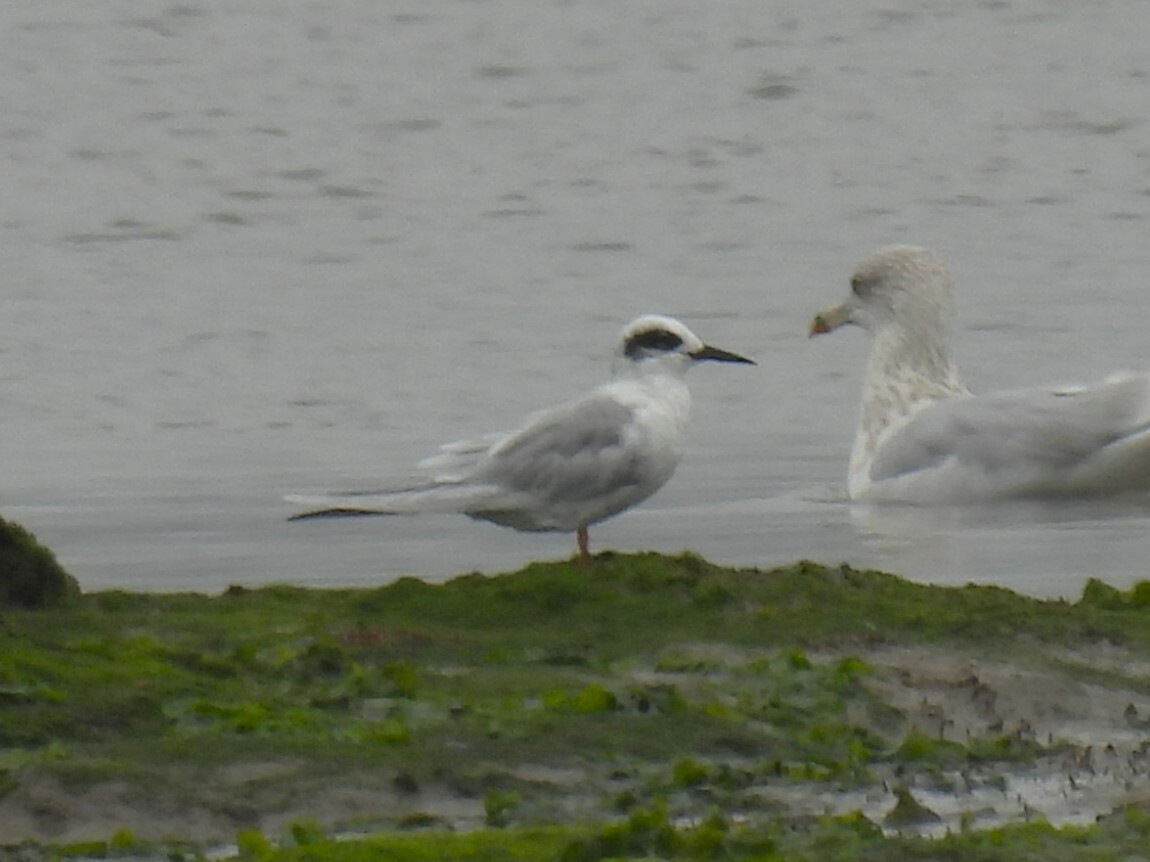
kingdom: Animalia
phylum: Chordata
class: Aves
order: Charadriiformes
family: Laridae
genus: Sterna
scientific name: Sterna forsteri
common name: Forster's tern
